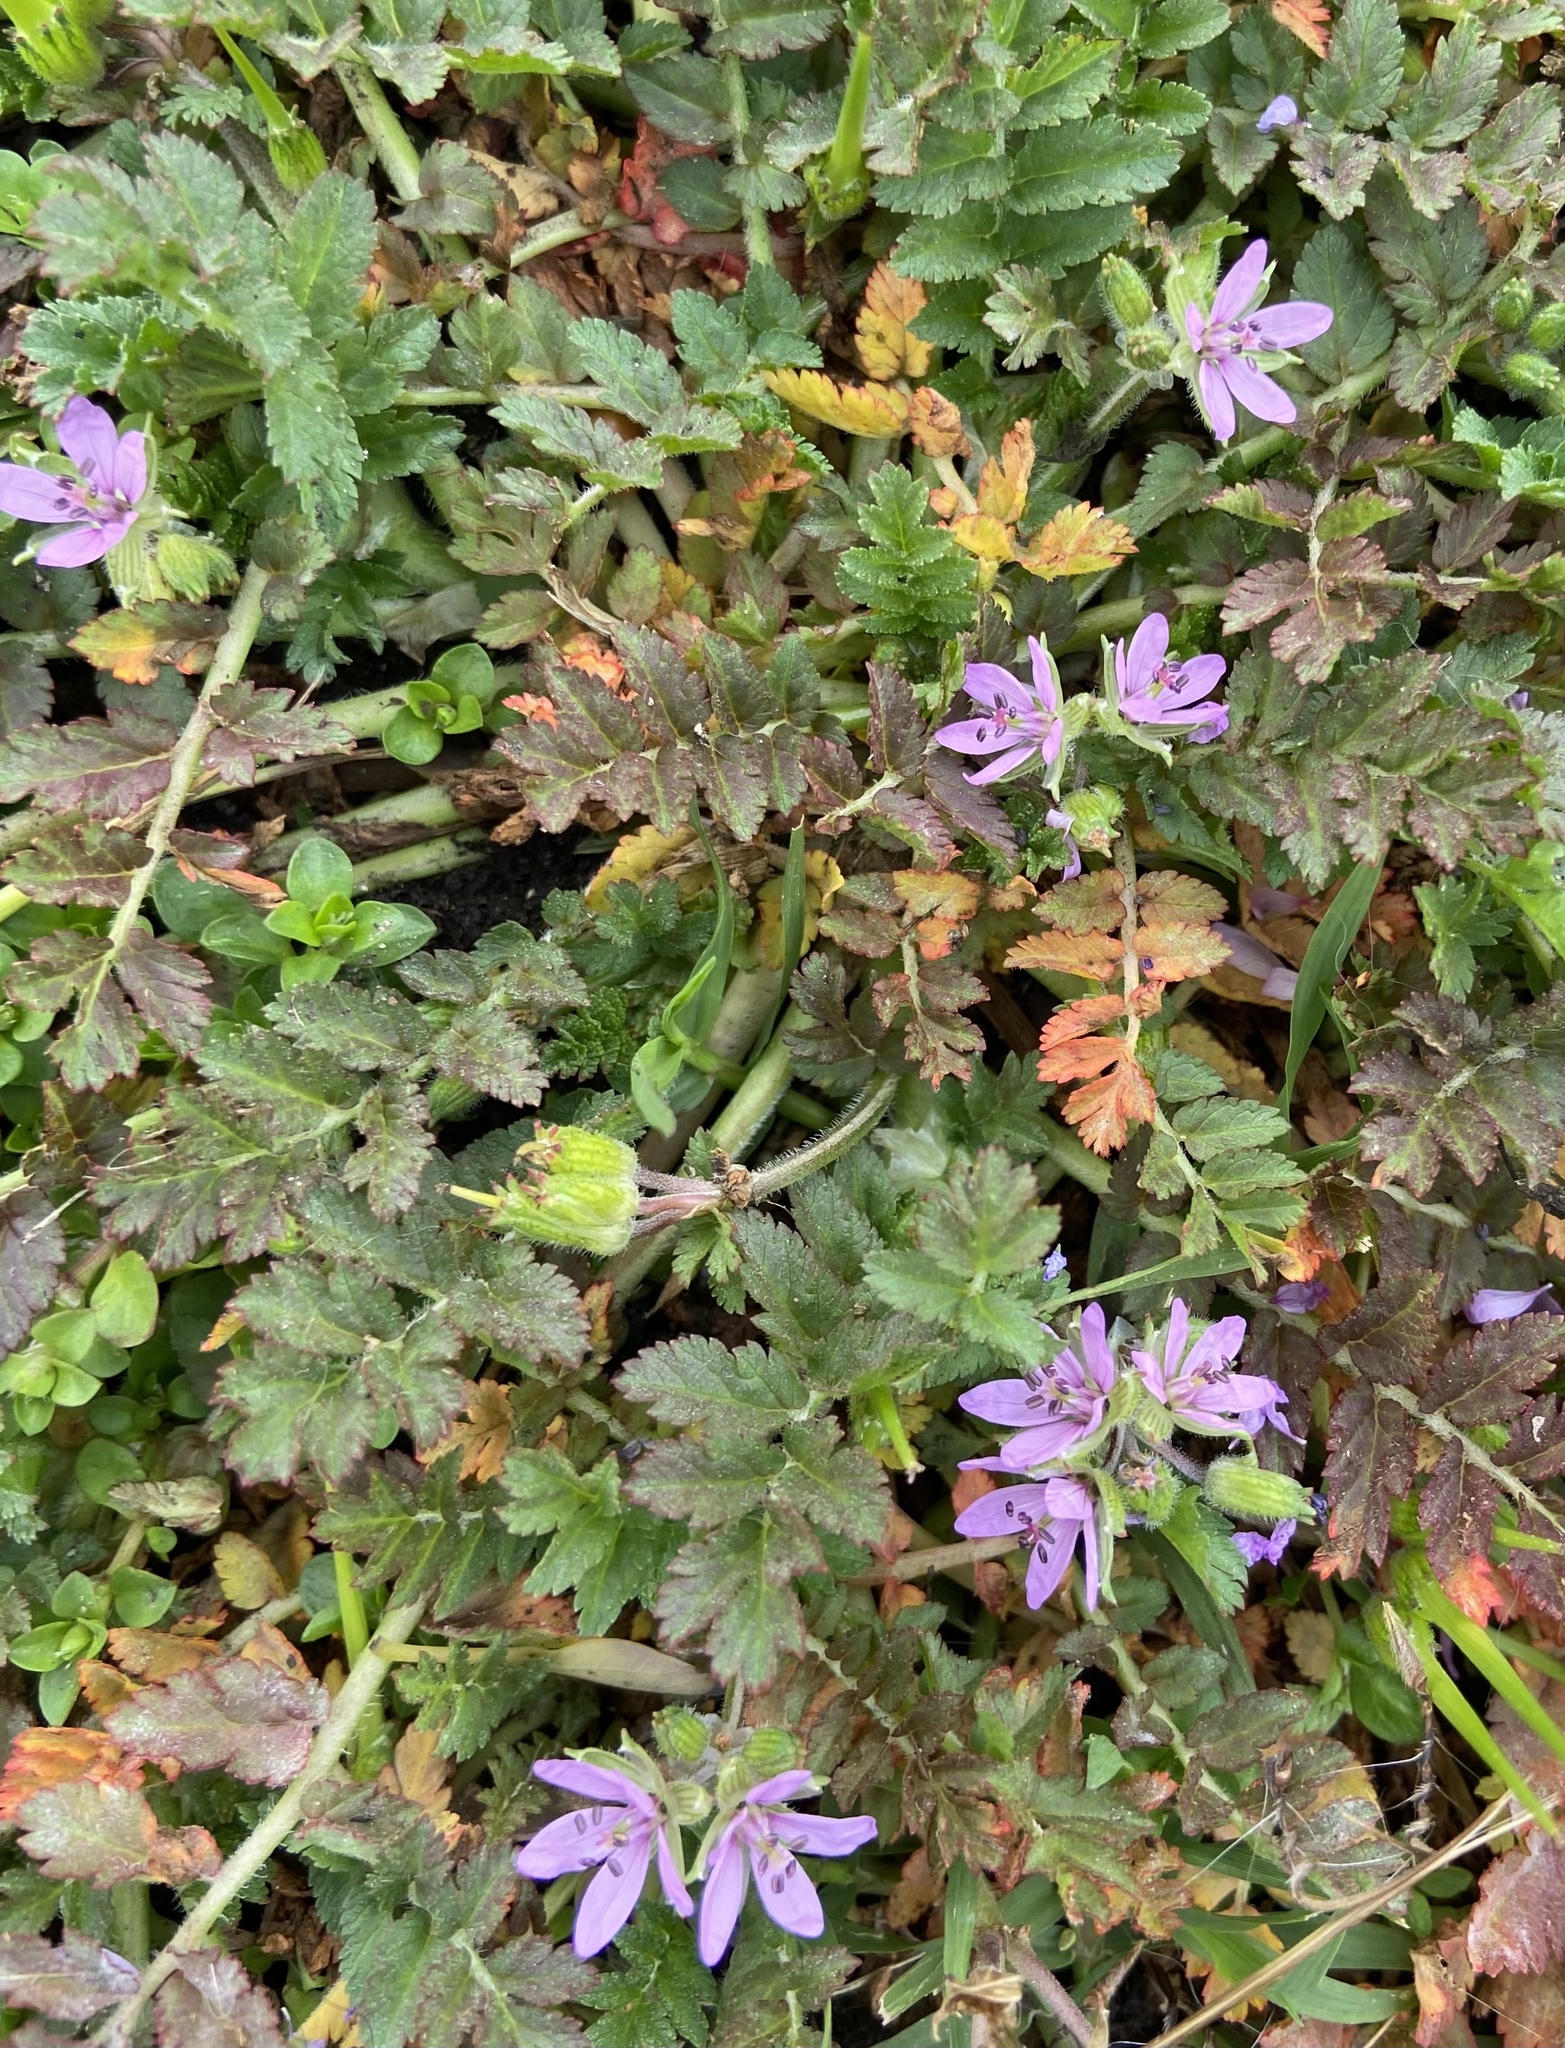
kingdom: Plantae
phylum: Tracheophyta
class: Magnoliopsida
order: Geraniales
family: Geraniaceae
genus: Erodium
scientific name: Erodium moschatum
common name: Musk stork's-bill
